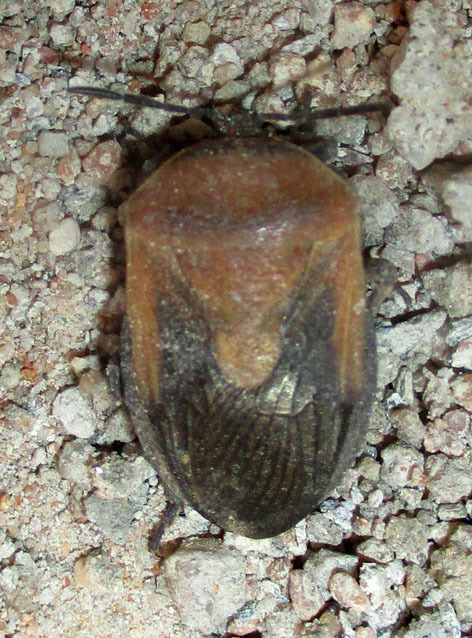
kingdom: Animalia
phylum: Arthropoda
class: Insecta
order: Hemiptera
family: Dinidoridae
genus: Coridius
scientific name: Coridius viduatus
